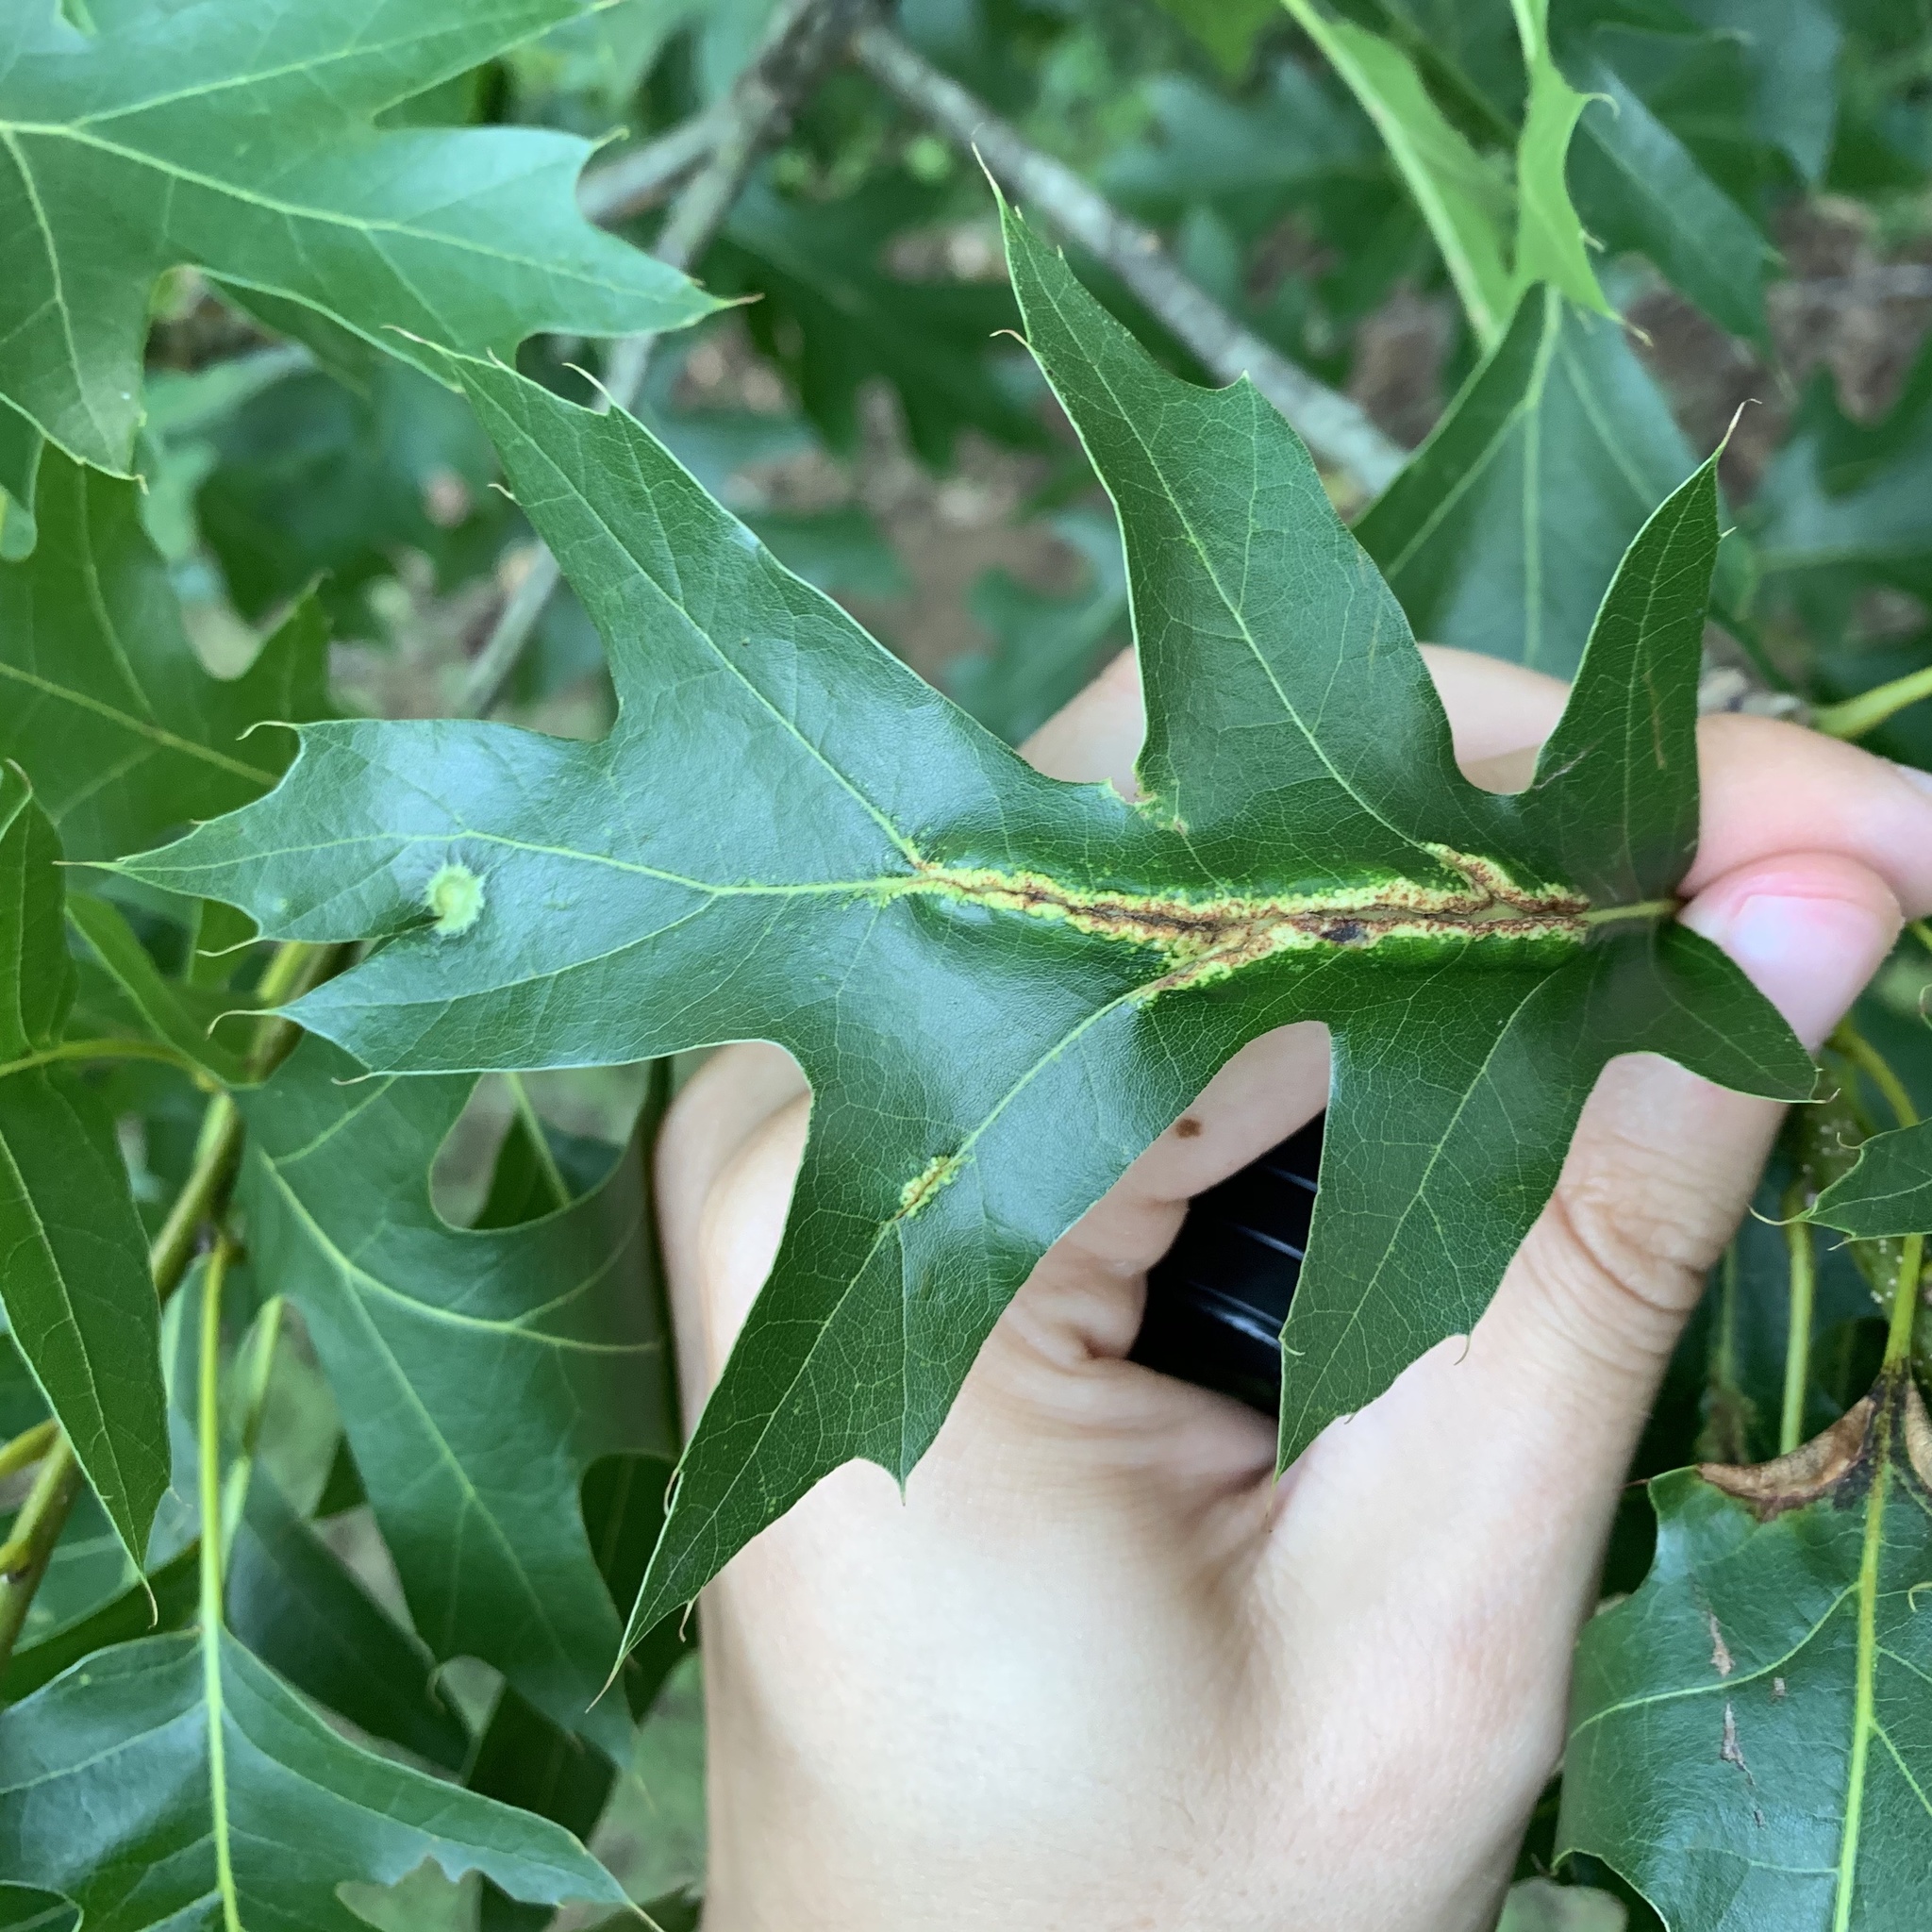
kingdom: Animalia
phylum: Arthropoda
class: Insecta
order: Diptera
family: Cecidomyiidae
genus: Macrodiplosis
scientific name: Macrodiplosis q-orucum
